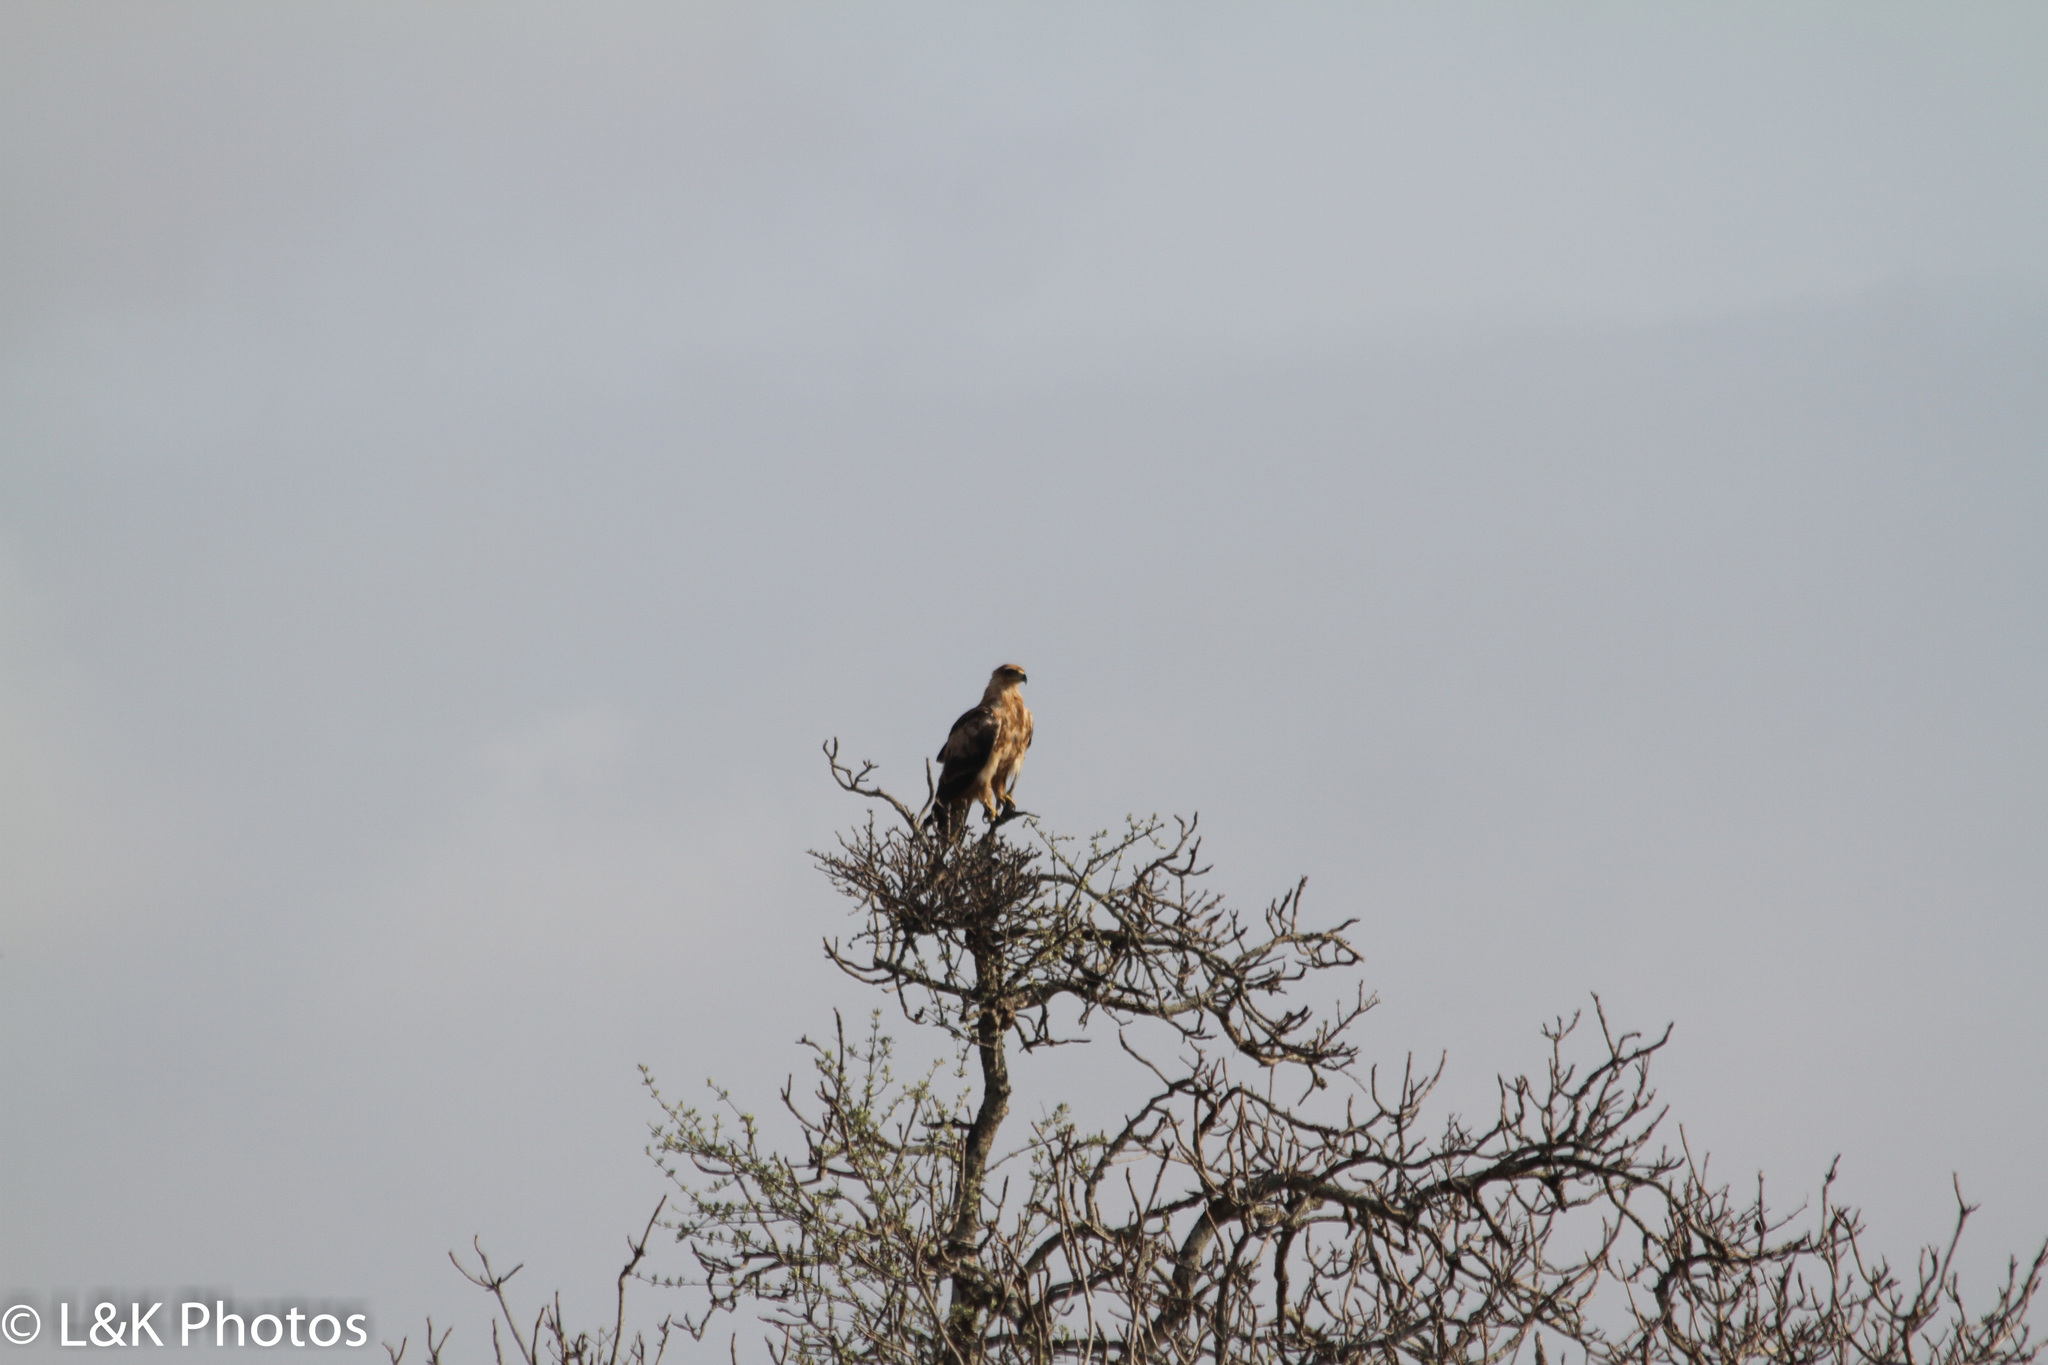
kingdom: Animalia
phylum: Chordata
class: Aves
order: Accipitriformes
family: Accipitridae
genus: Aquila
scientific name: Aquila rapax
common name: Tawny eagle
